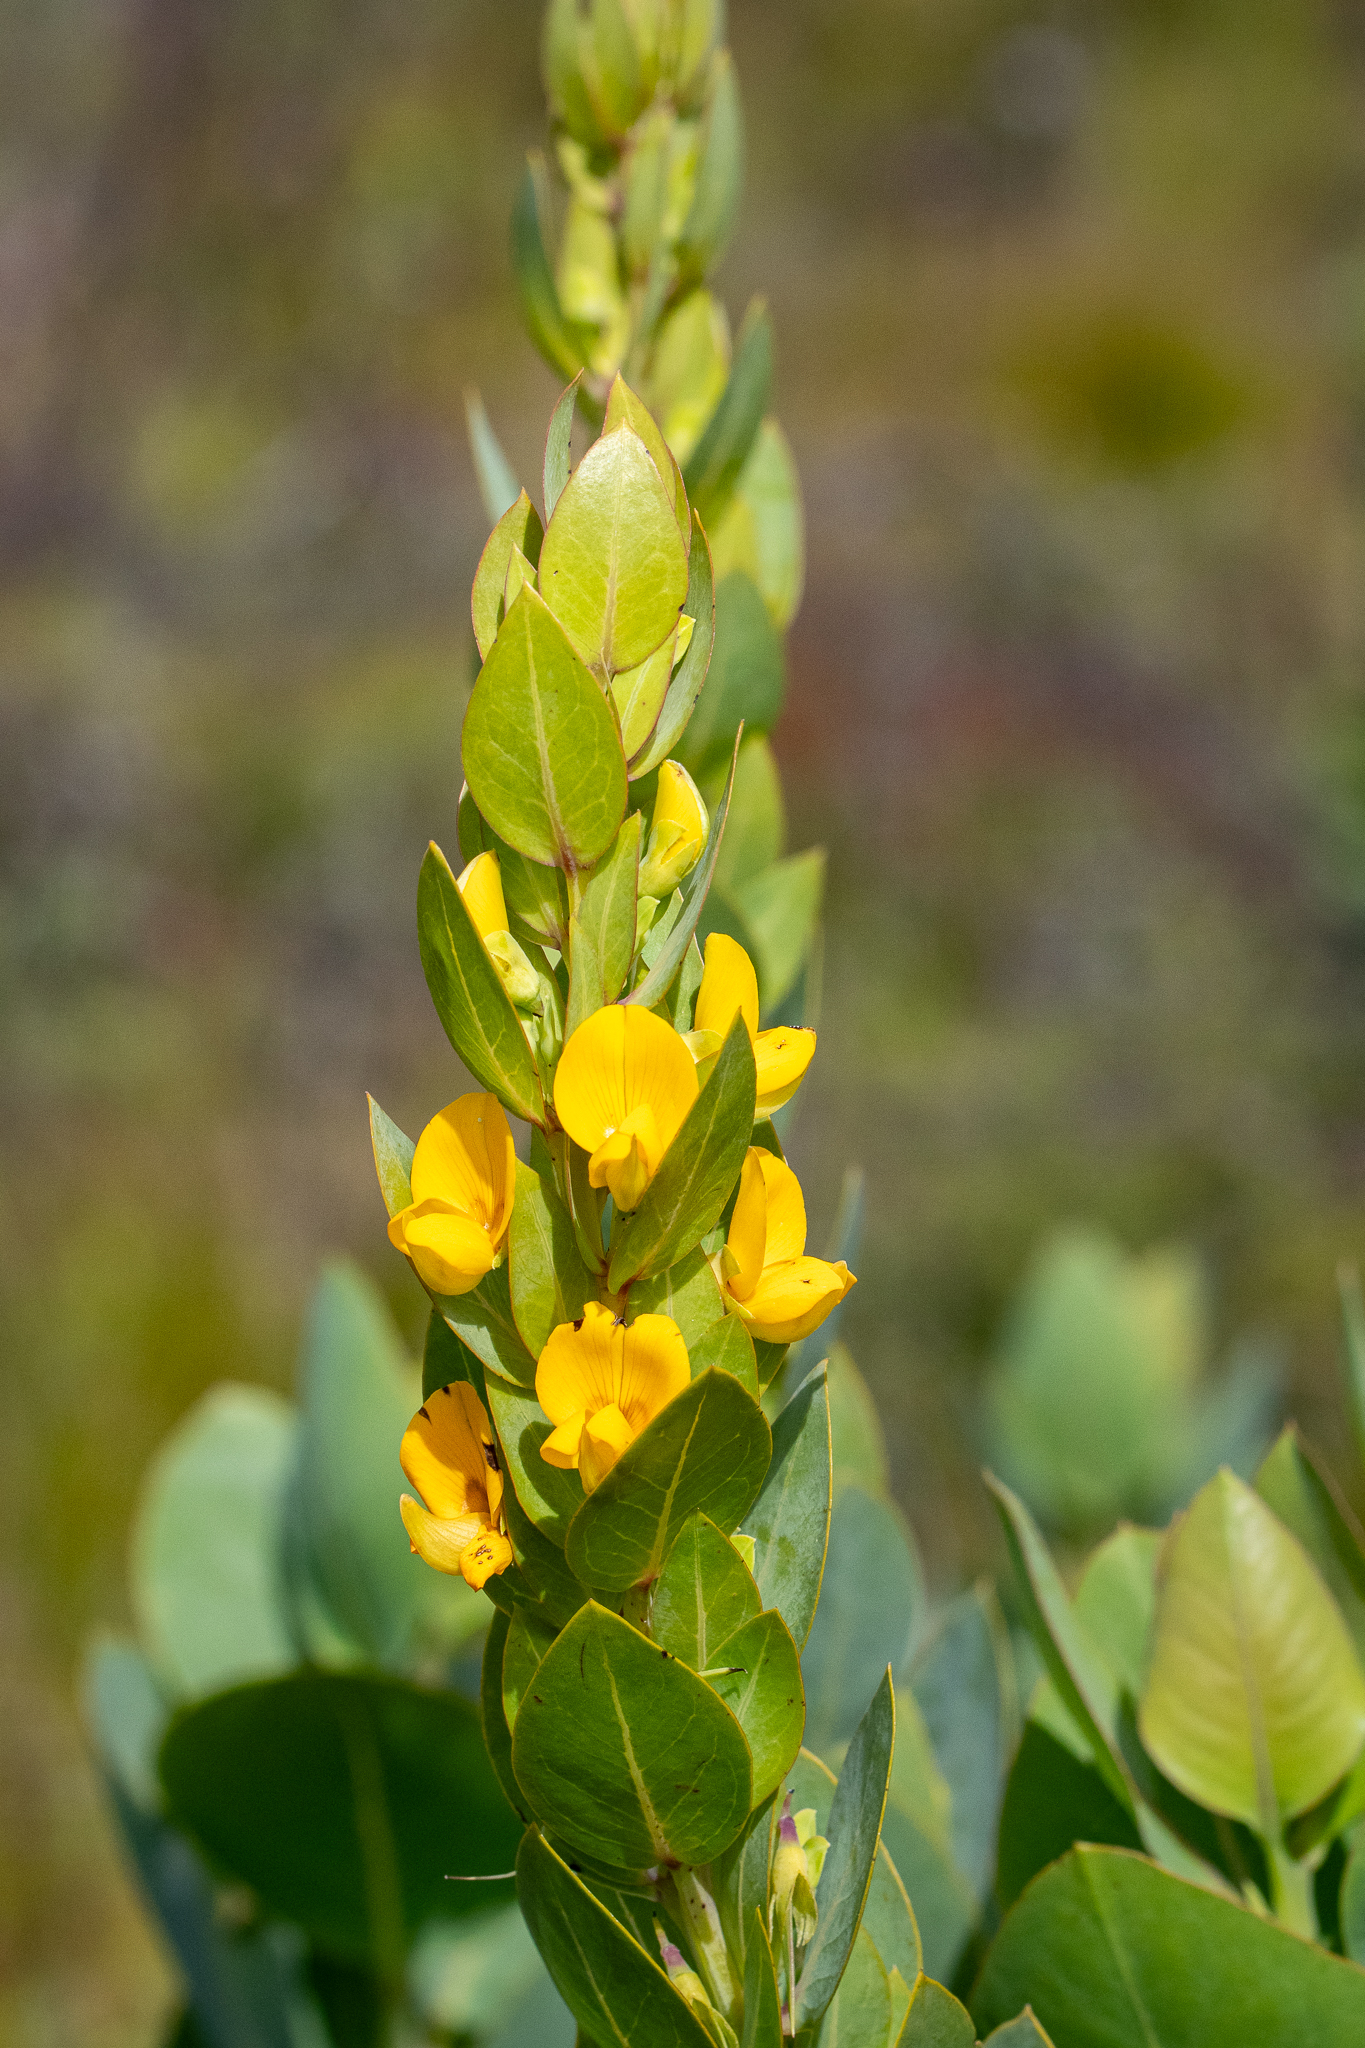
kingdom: Plantae
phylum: Tracheophyta
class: Magnoliopsida
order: Fabales
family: Fabaceae
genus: Rafnia
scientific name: Rafnia triflora
